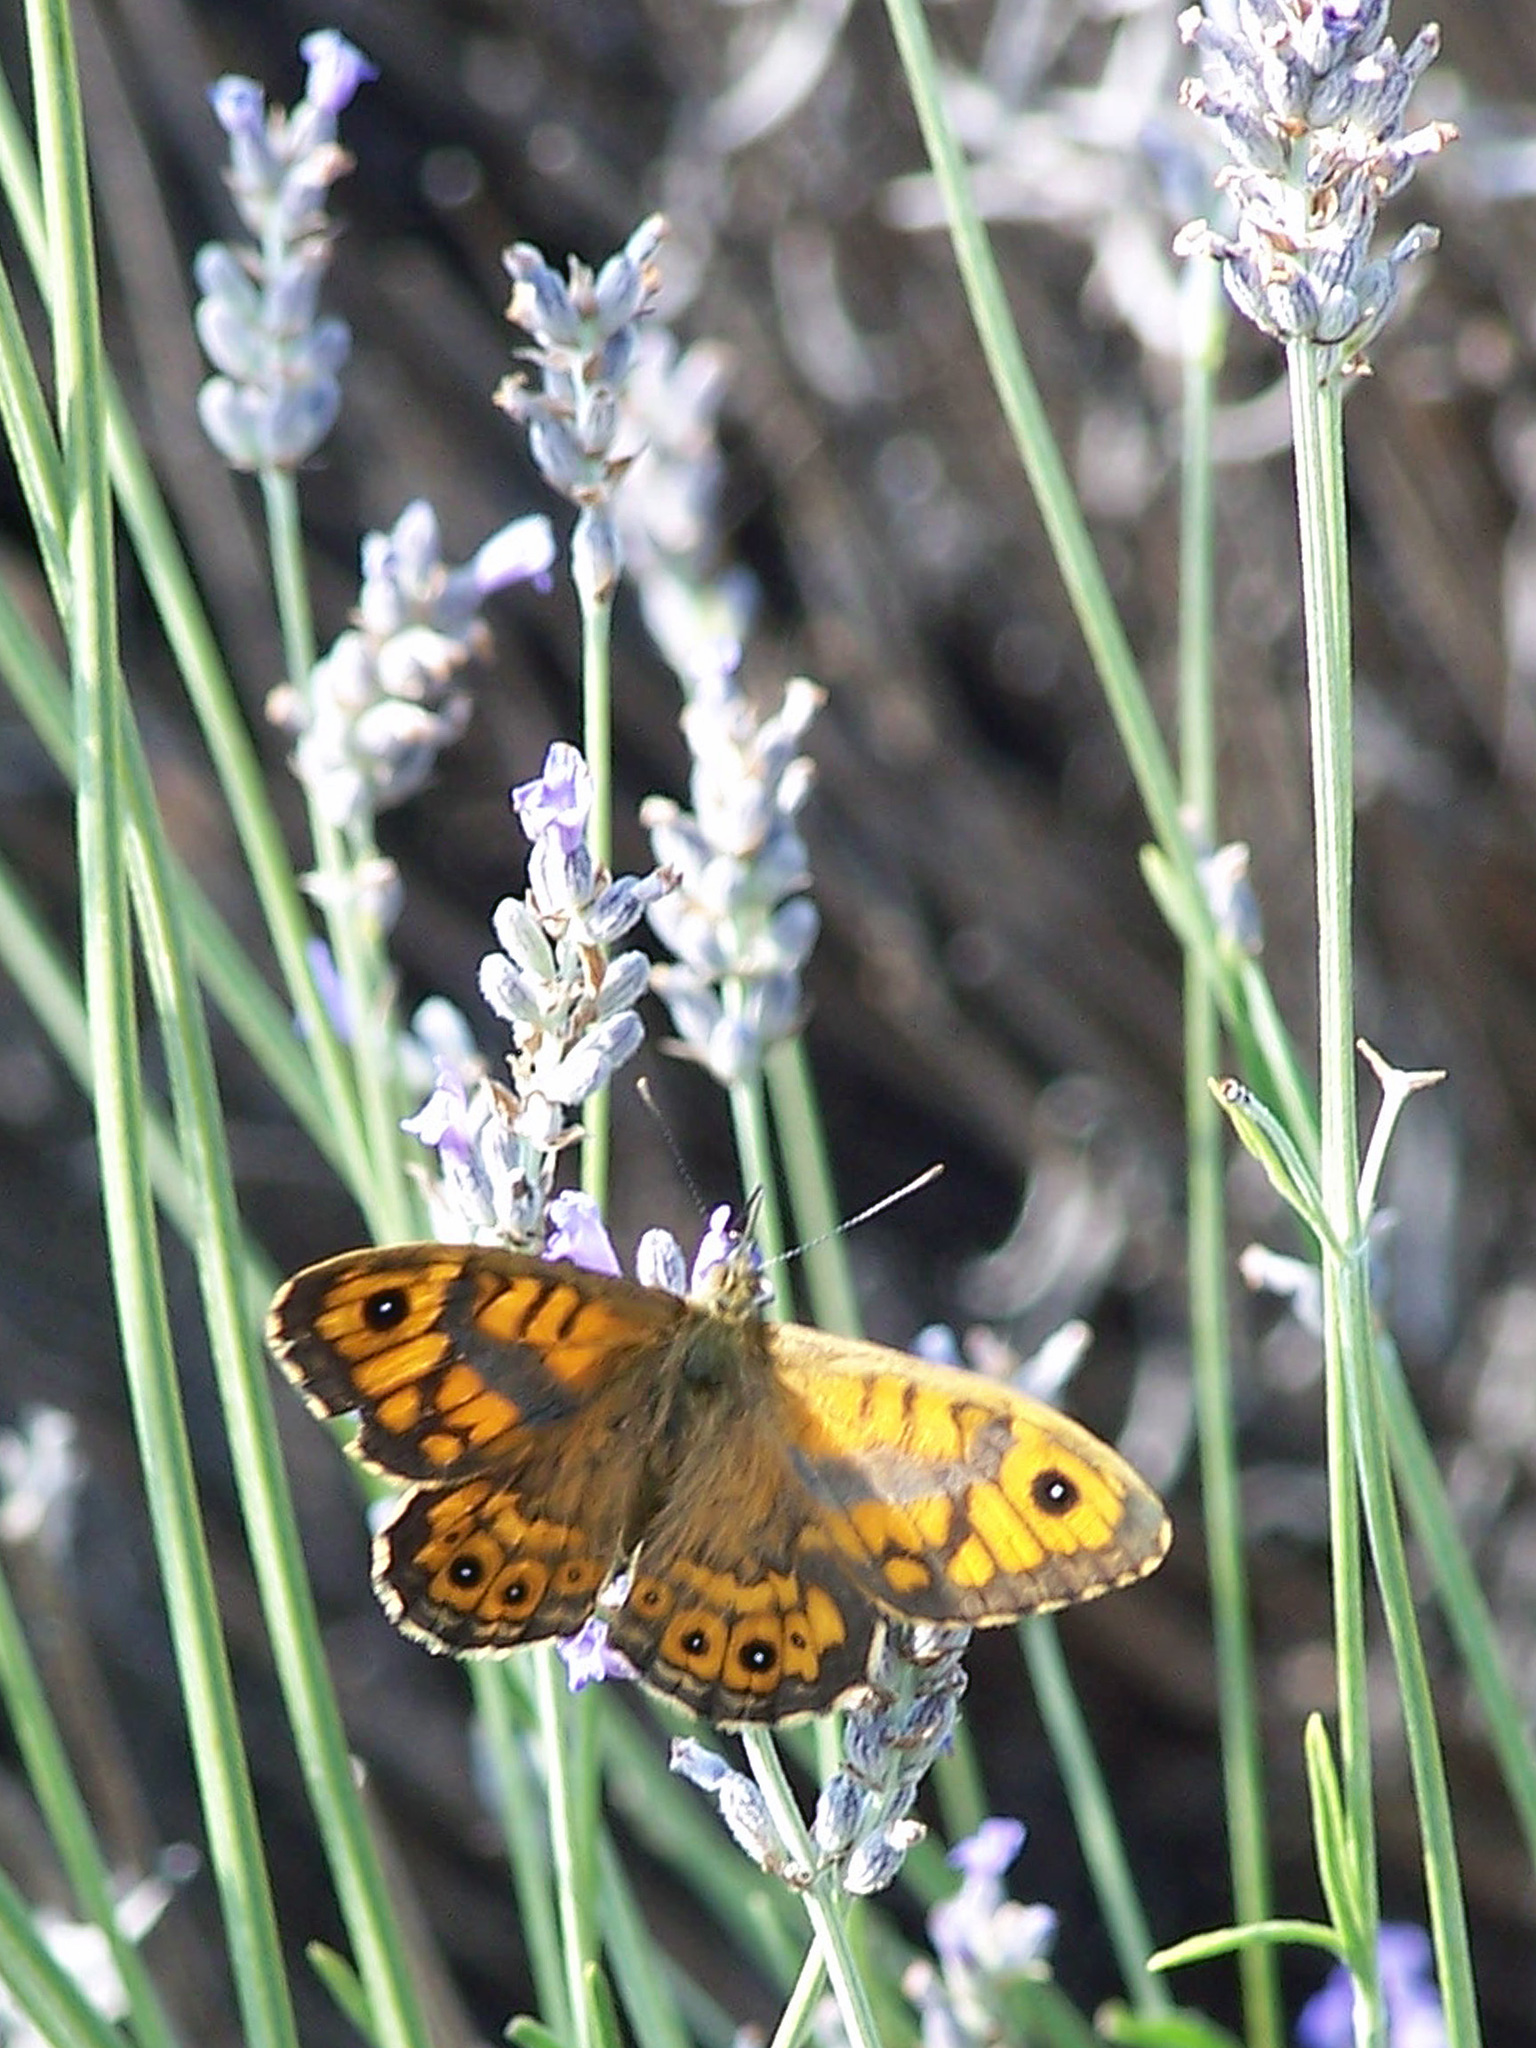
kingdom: Animalia
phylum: Arthropoda
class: Insecta
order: Lepidoptera
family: Nymphalidae
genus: Pararge
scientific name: Pararge Lasiommata megera
